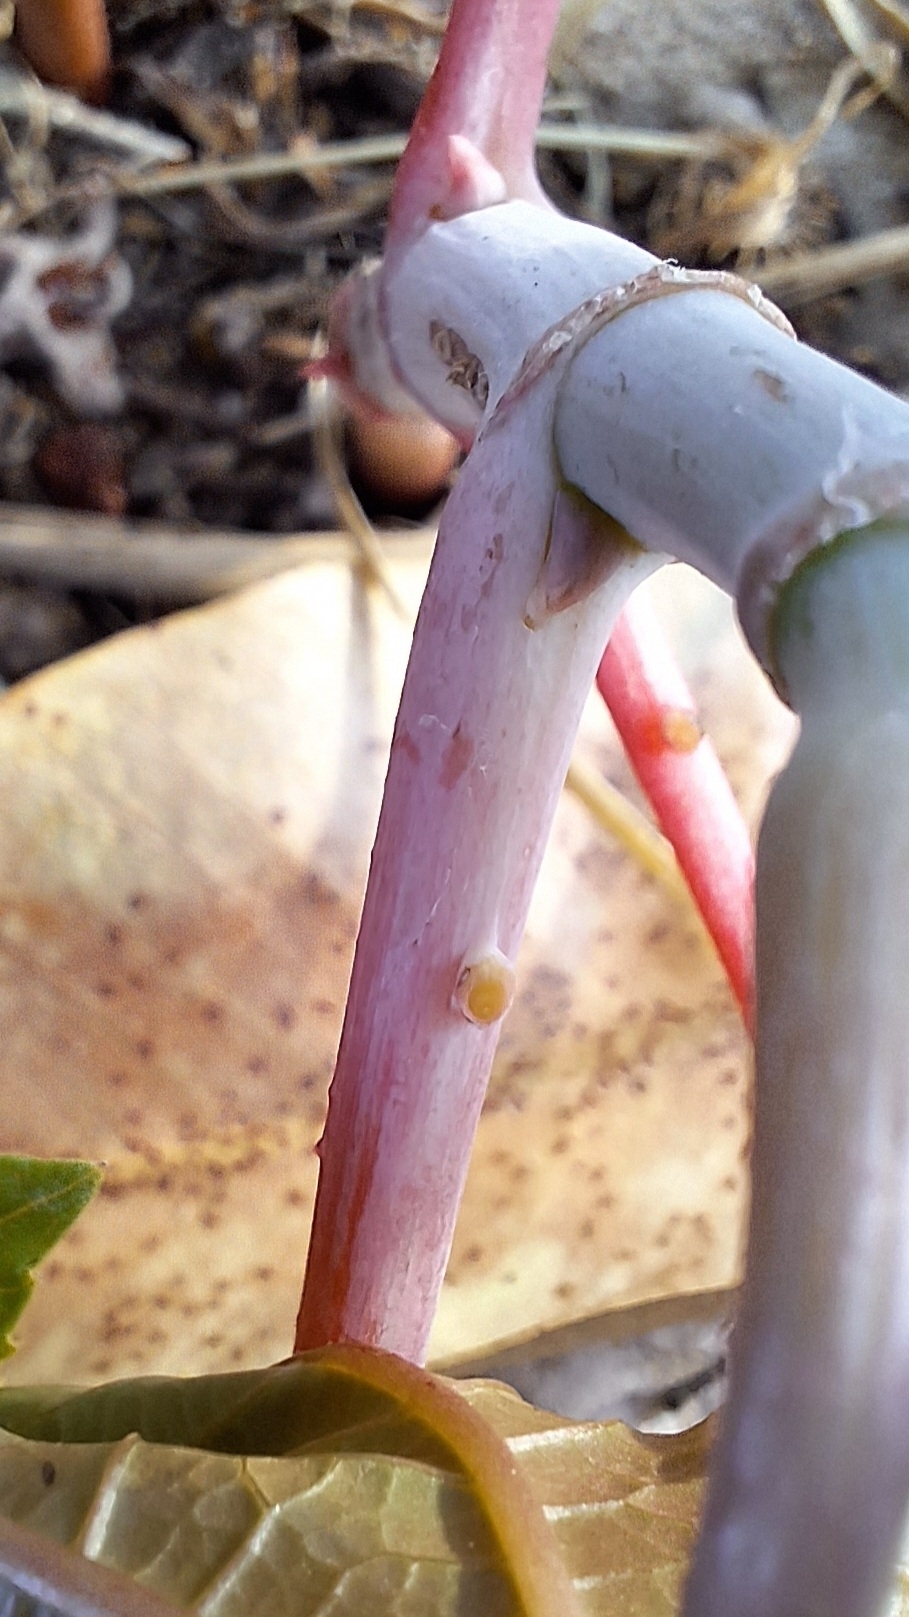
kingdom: Plantae
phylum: Tracheophyta
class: Magnoliopsida
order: Malpighiales
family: Euphorbiaceae
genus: Ricinus
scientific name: Ricinus communis
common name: Castor-oil-plant
